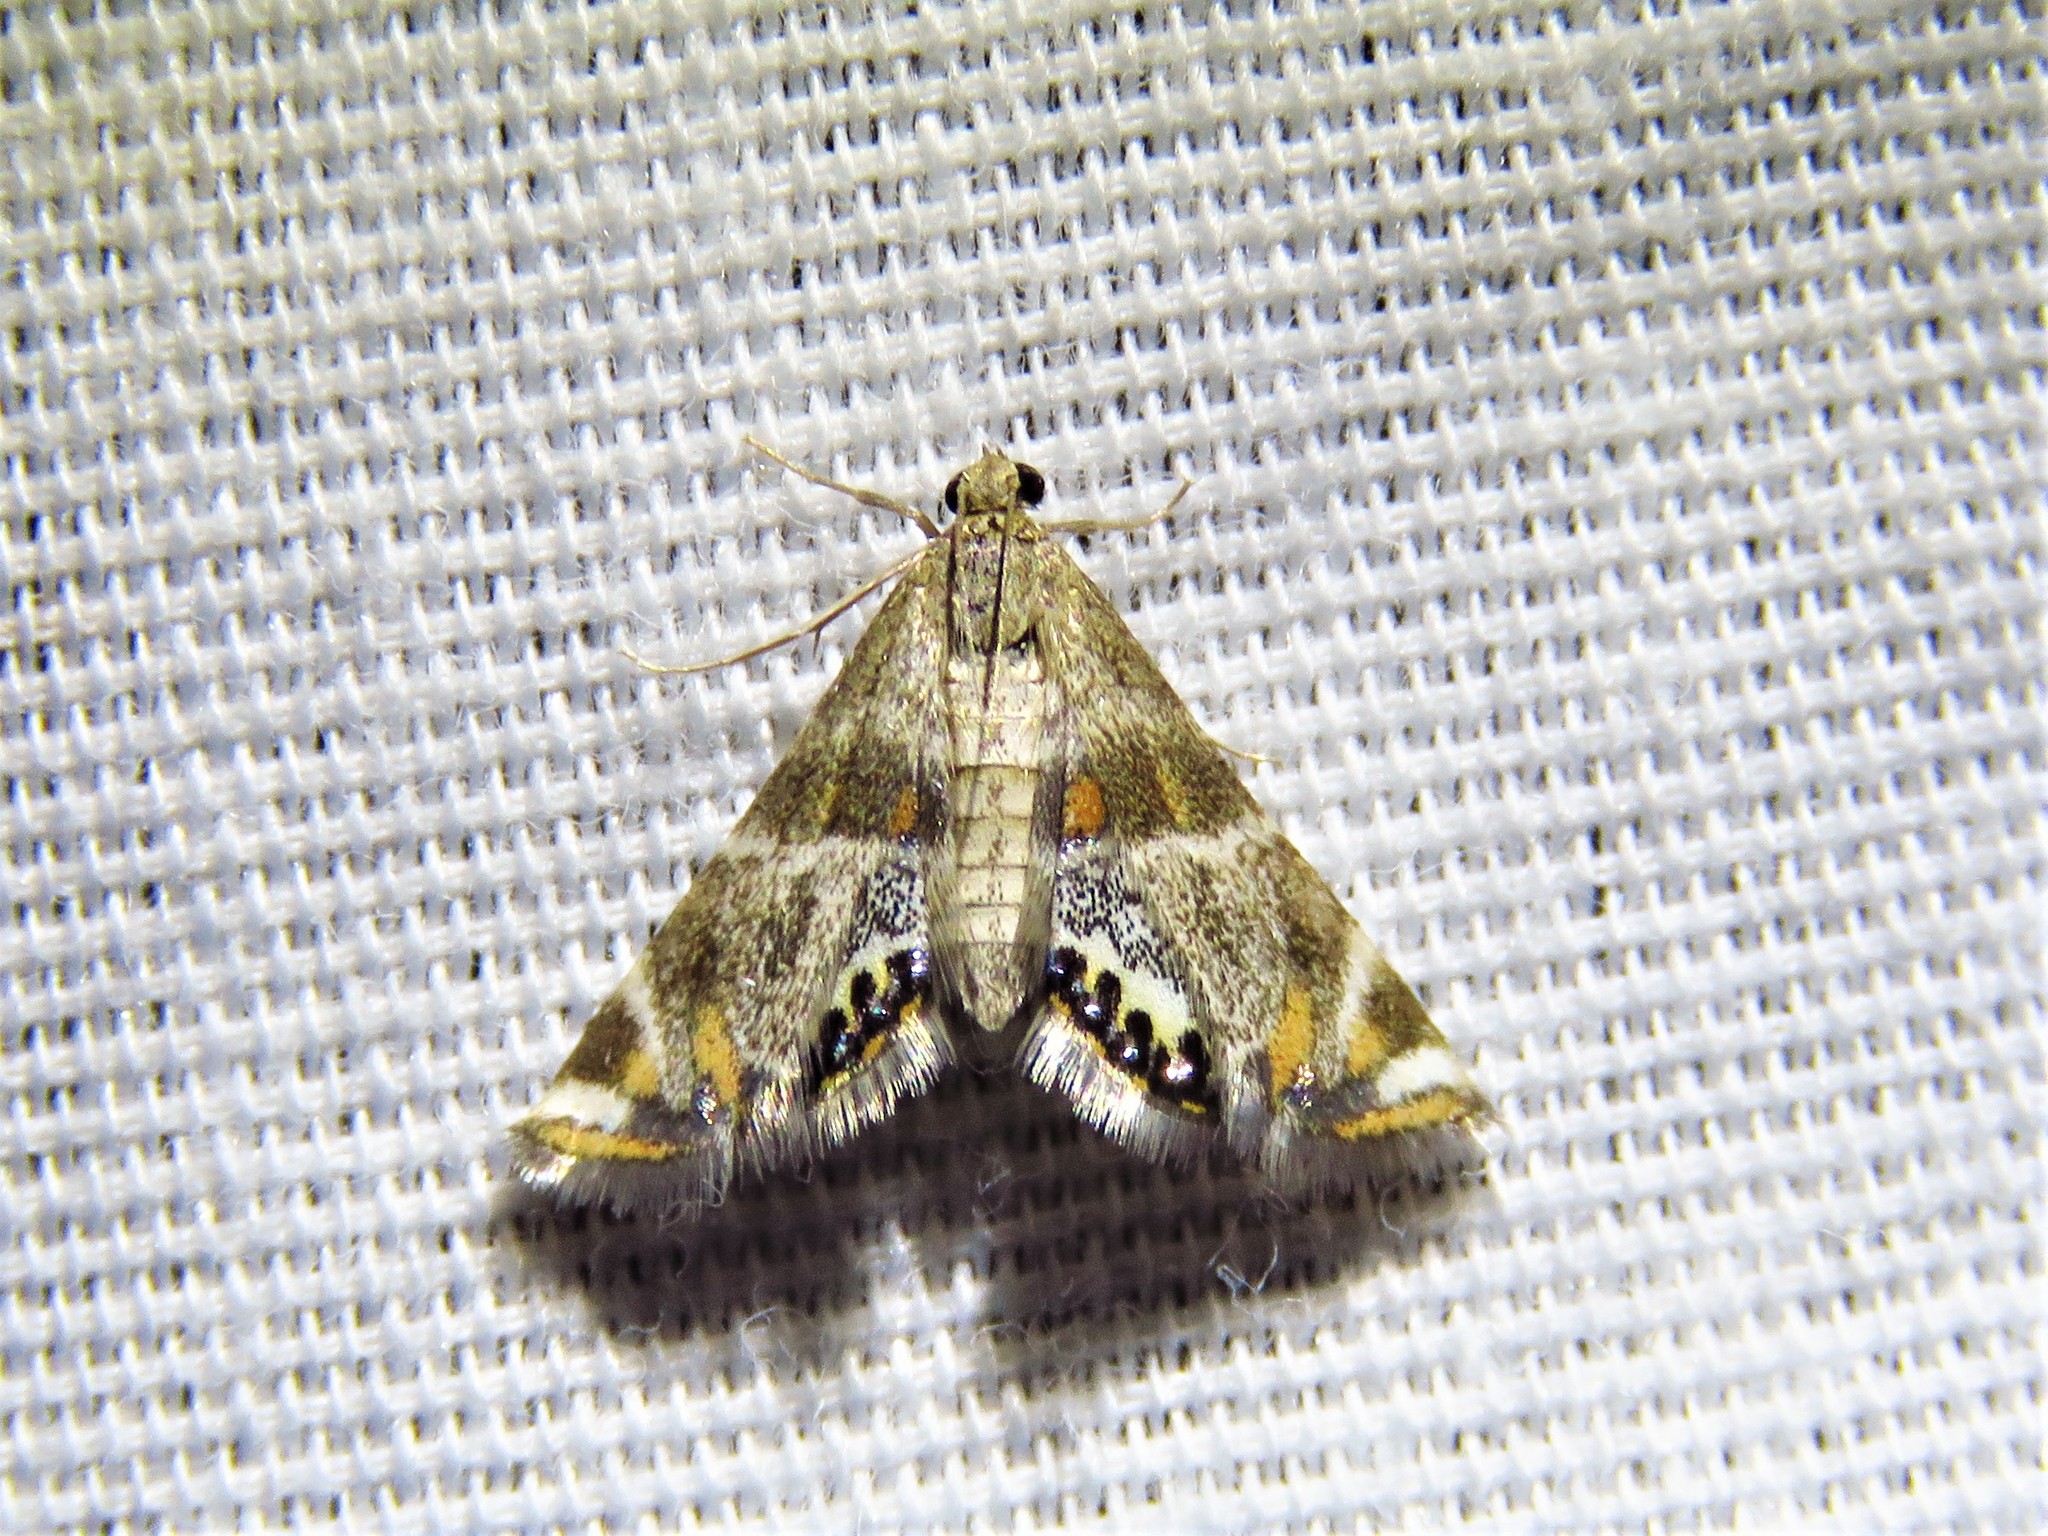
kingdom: Animalia
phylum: Arthropoda
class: Insecta
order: Lepidoptera
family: Crambidae
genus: Petrophila
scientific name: Petrophila jaliscalis
